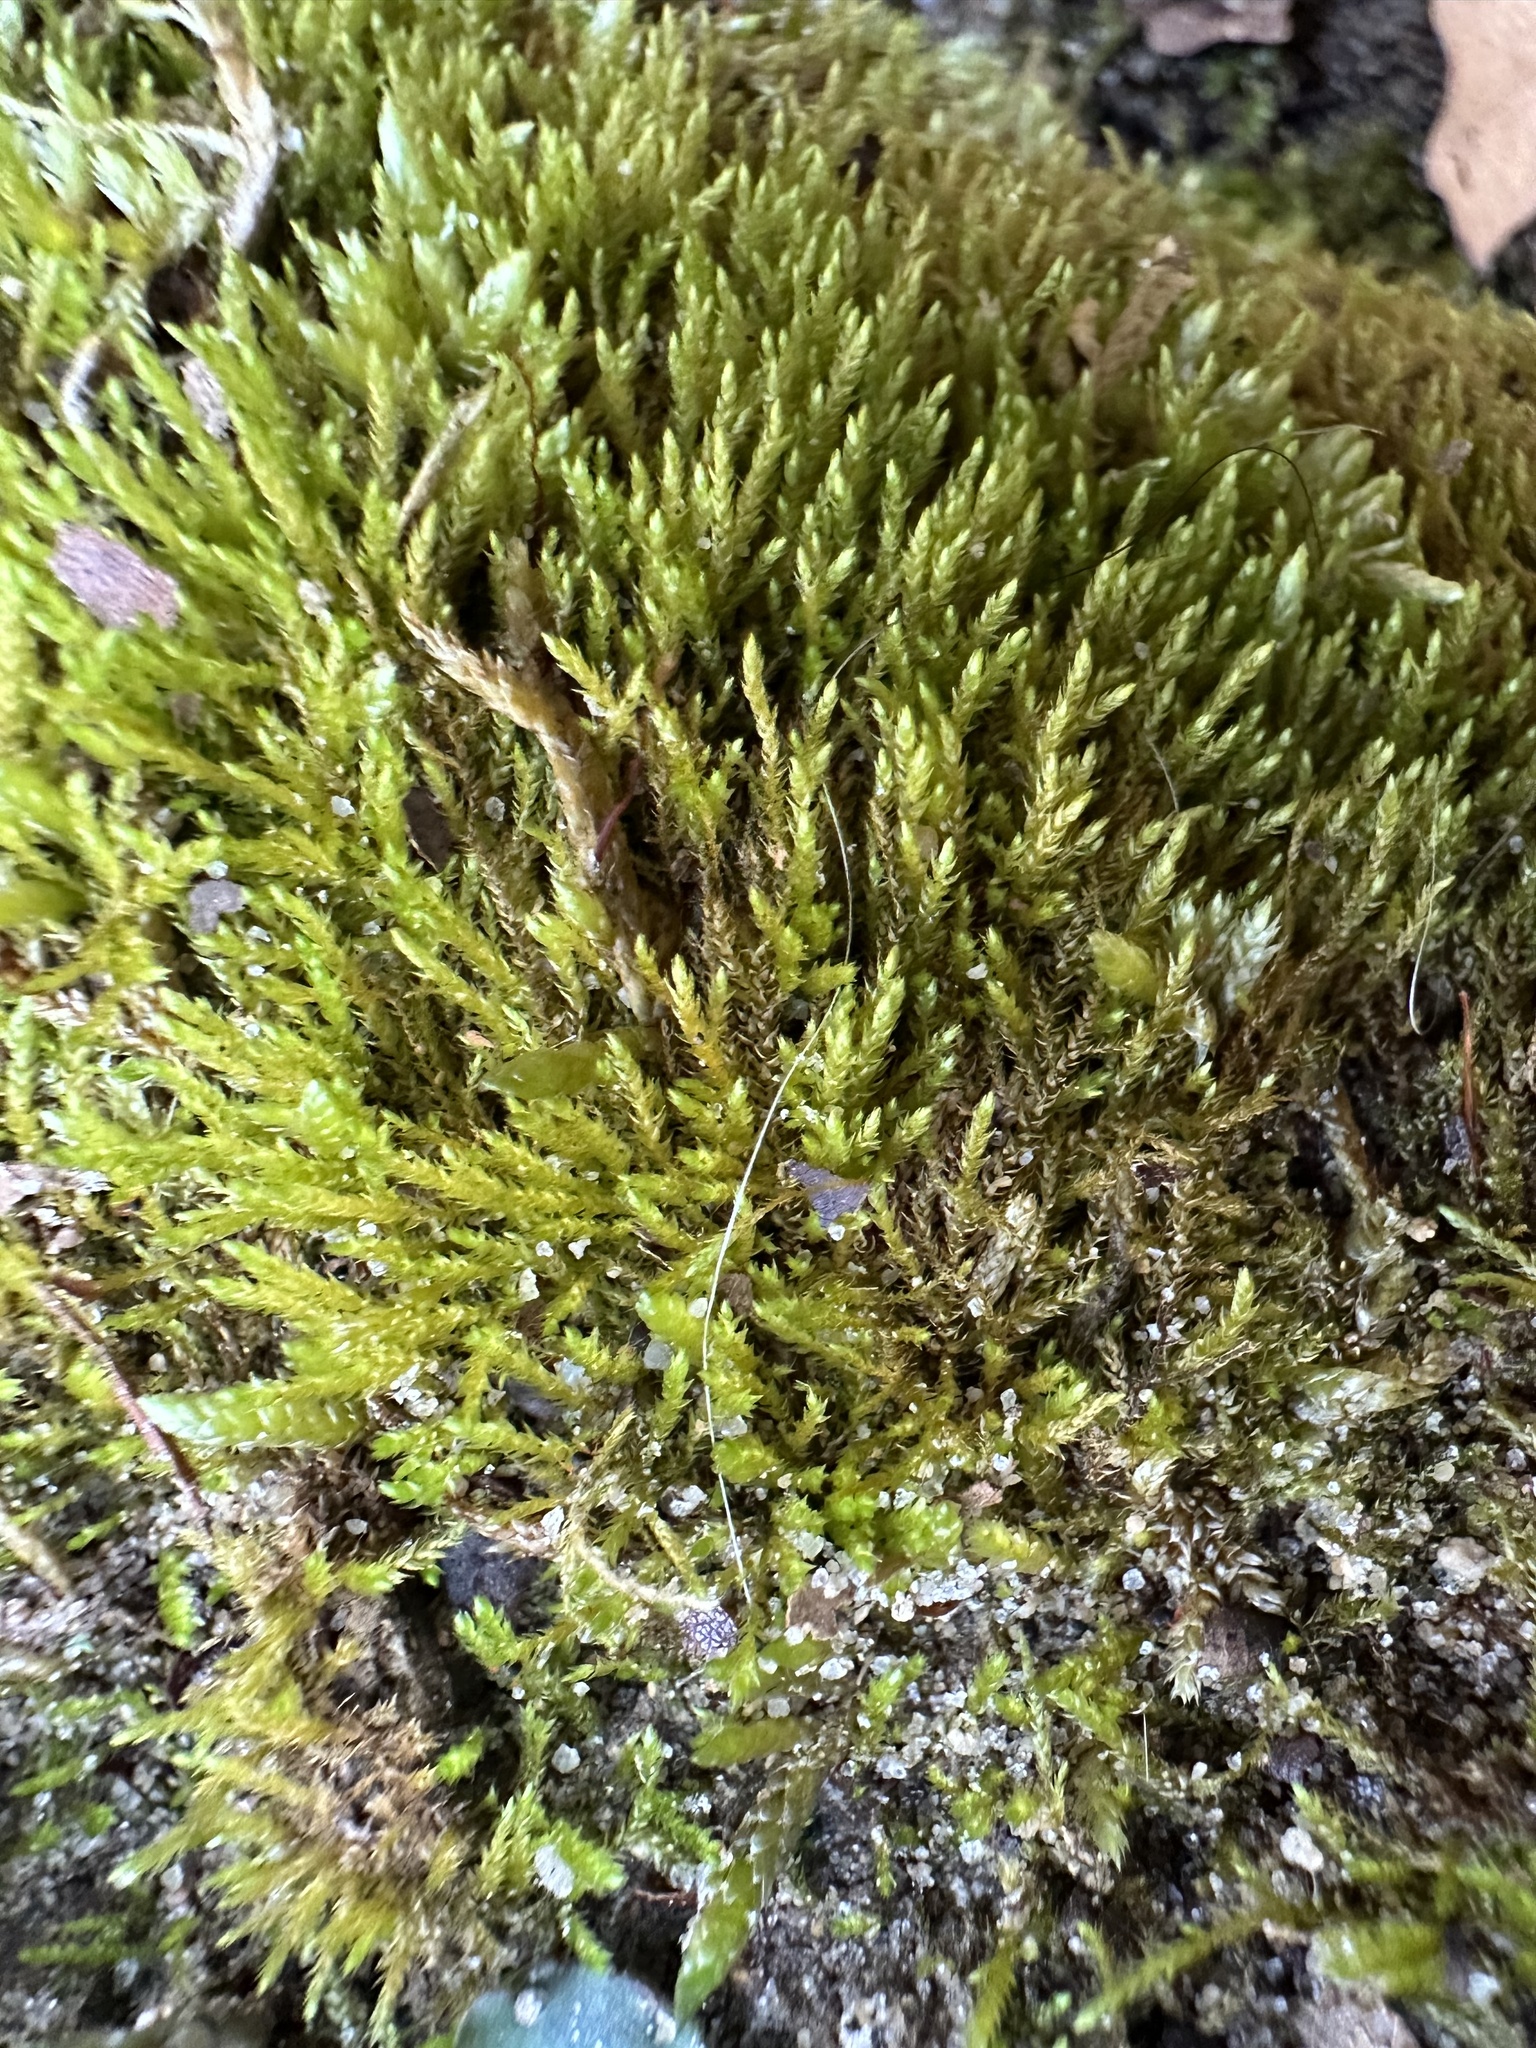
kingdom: Plantae
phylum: Bryophyta
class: Bryopsida
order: Hypnales
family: Amblystegiaceae
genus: Hygroamblystegium
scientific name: Hygroamblystegium varium
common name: Willow feather-moss
